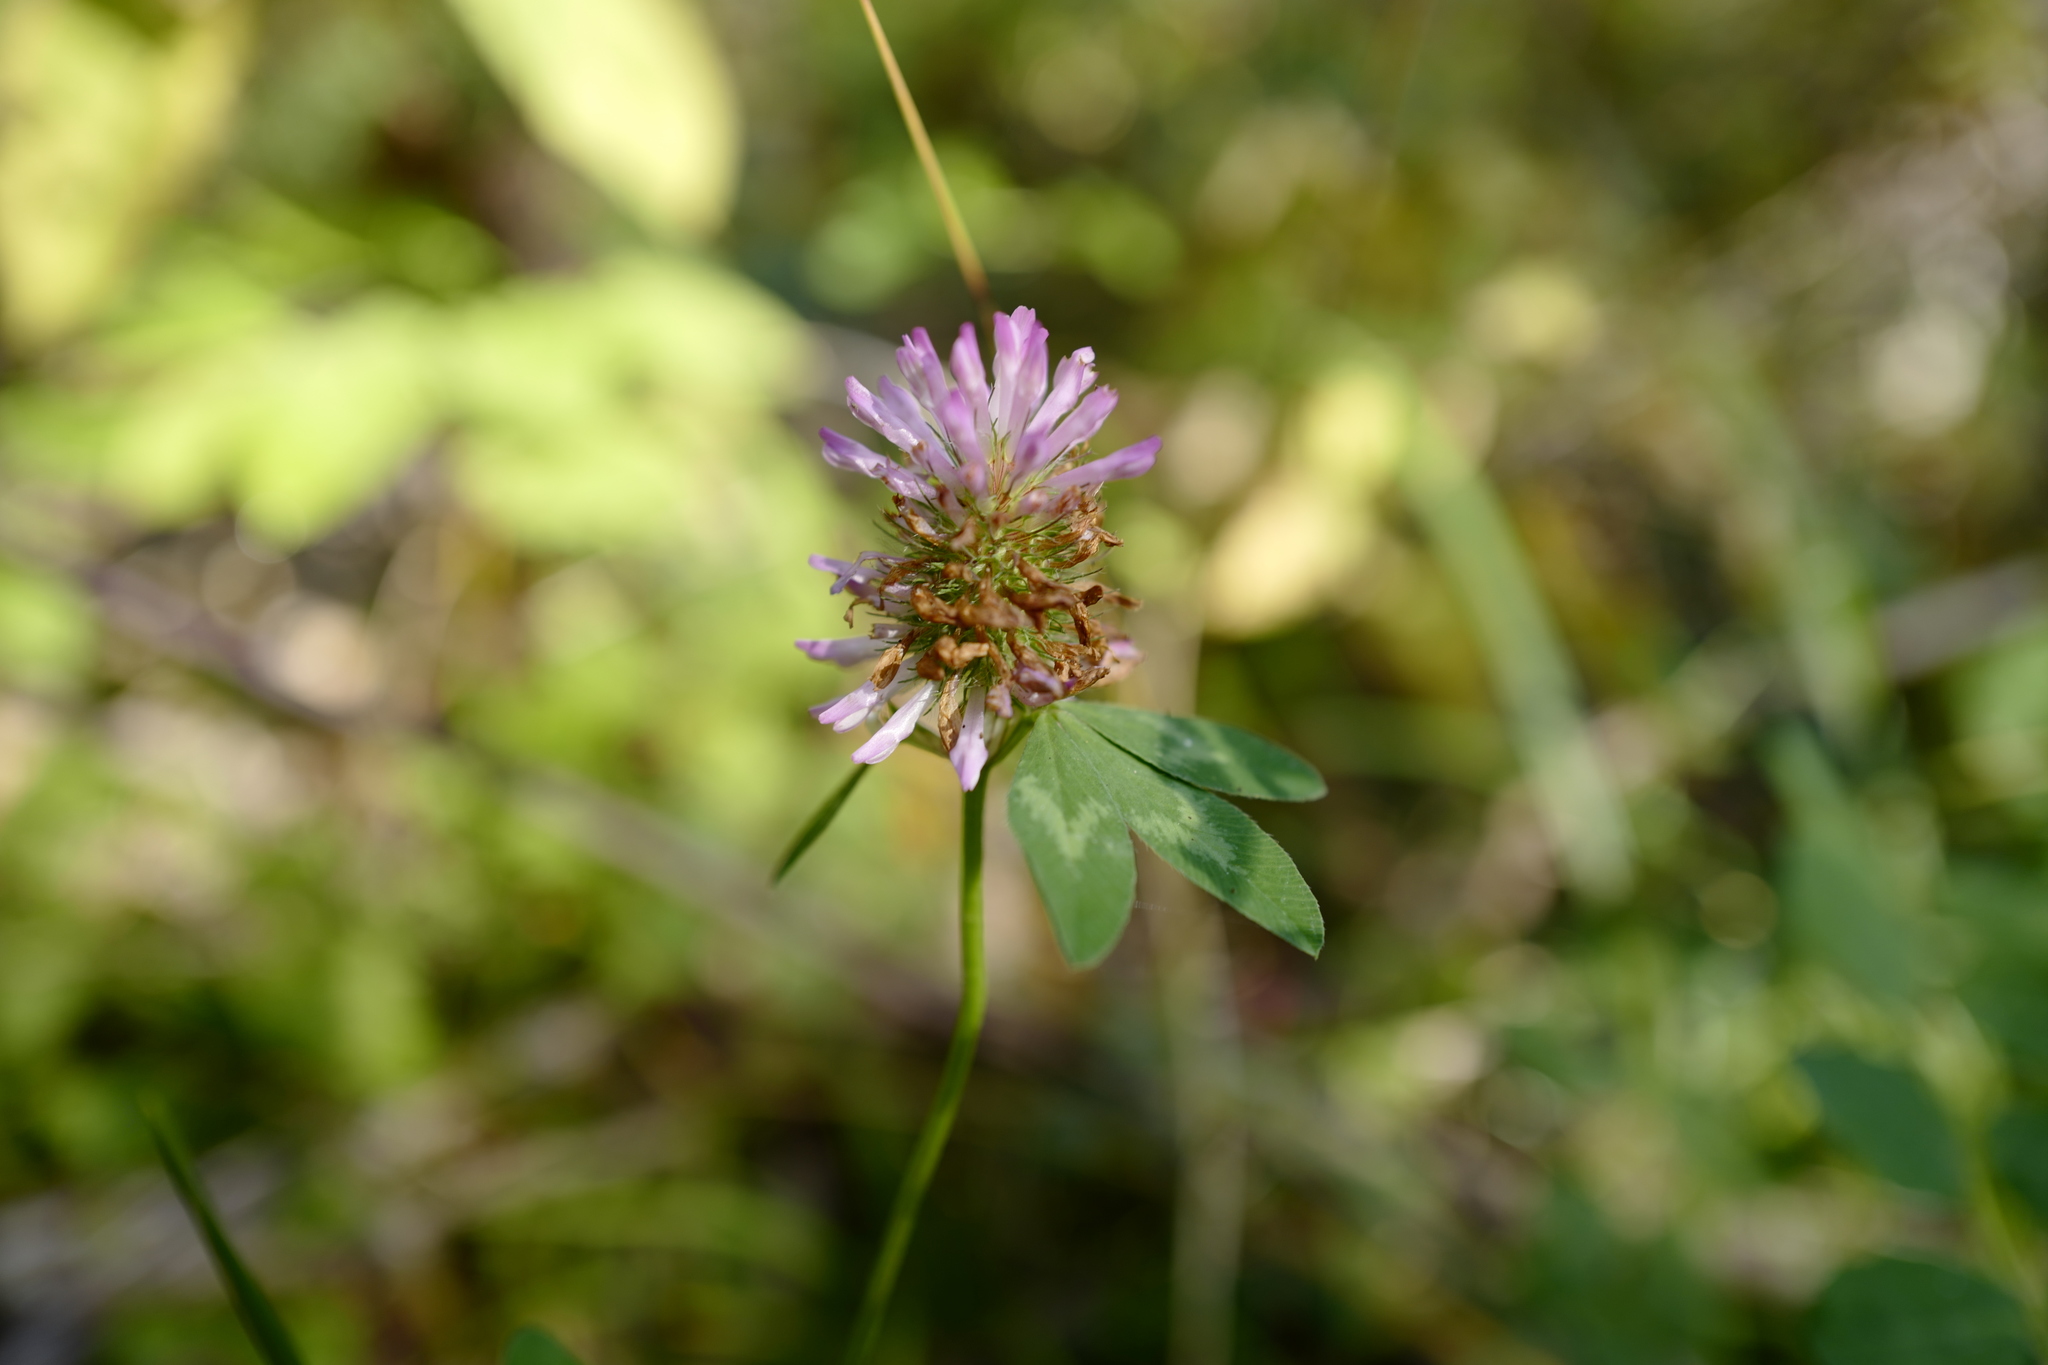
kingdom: Plantae
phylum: Tracheophyta
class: Magnoliopsida
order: Fabales
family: Fabaceae
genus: Trifolium
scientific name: Trifolium pratense
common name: Red clover
